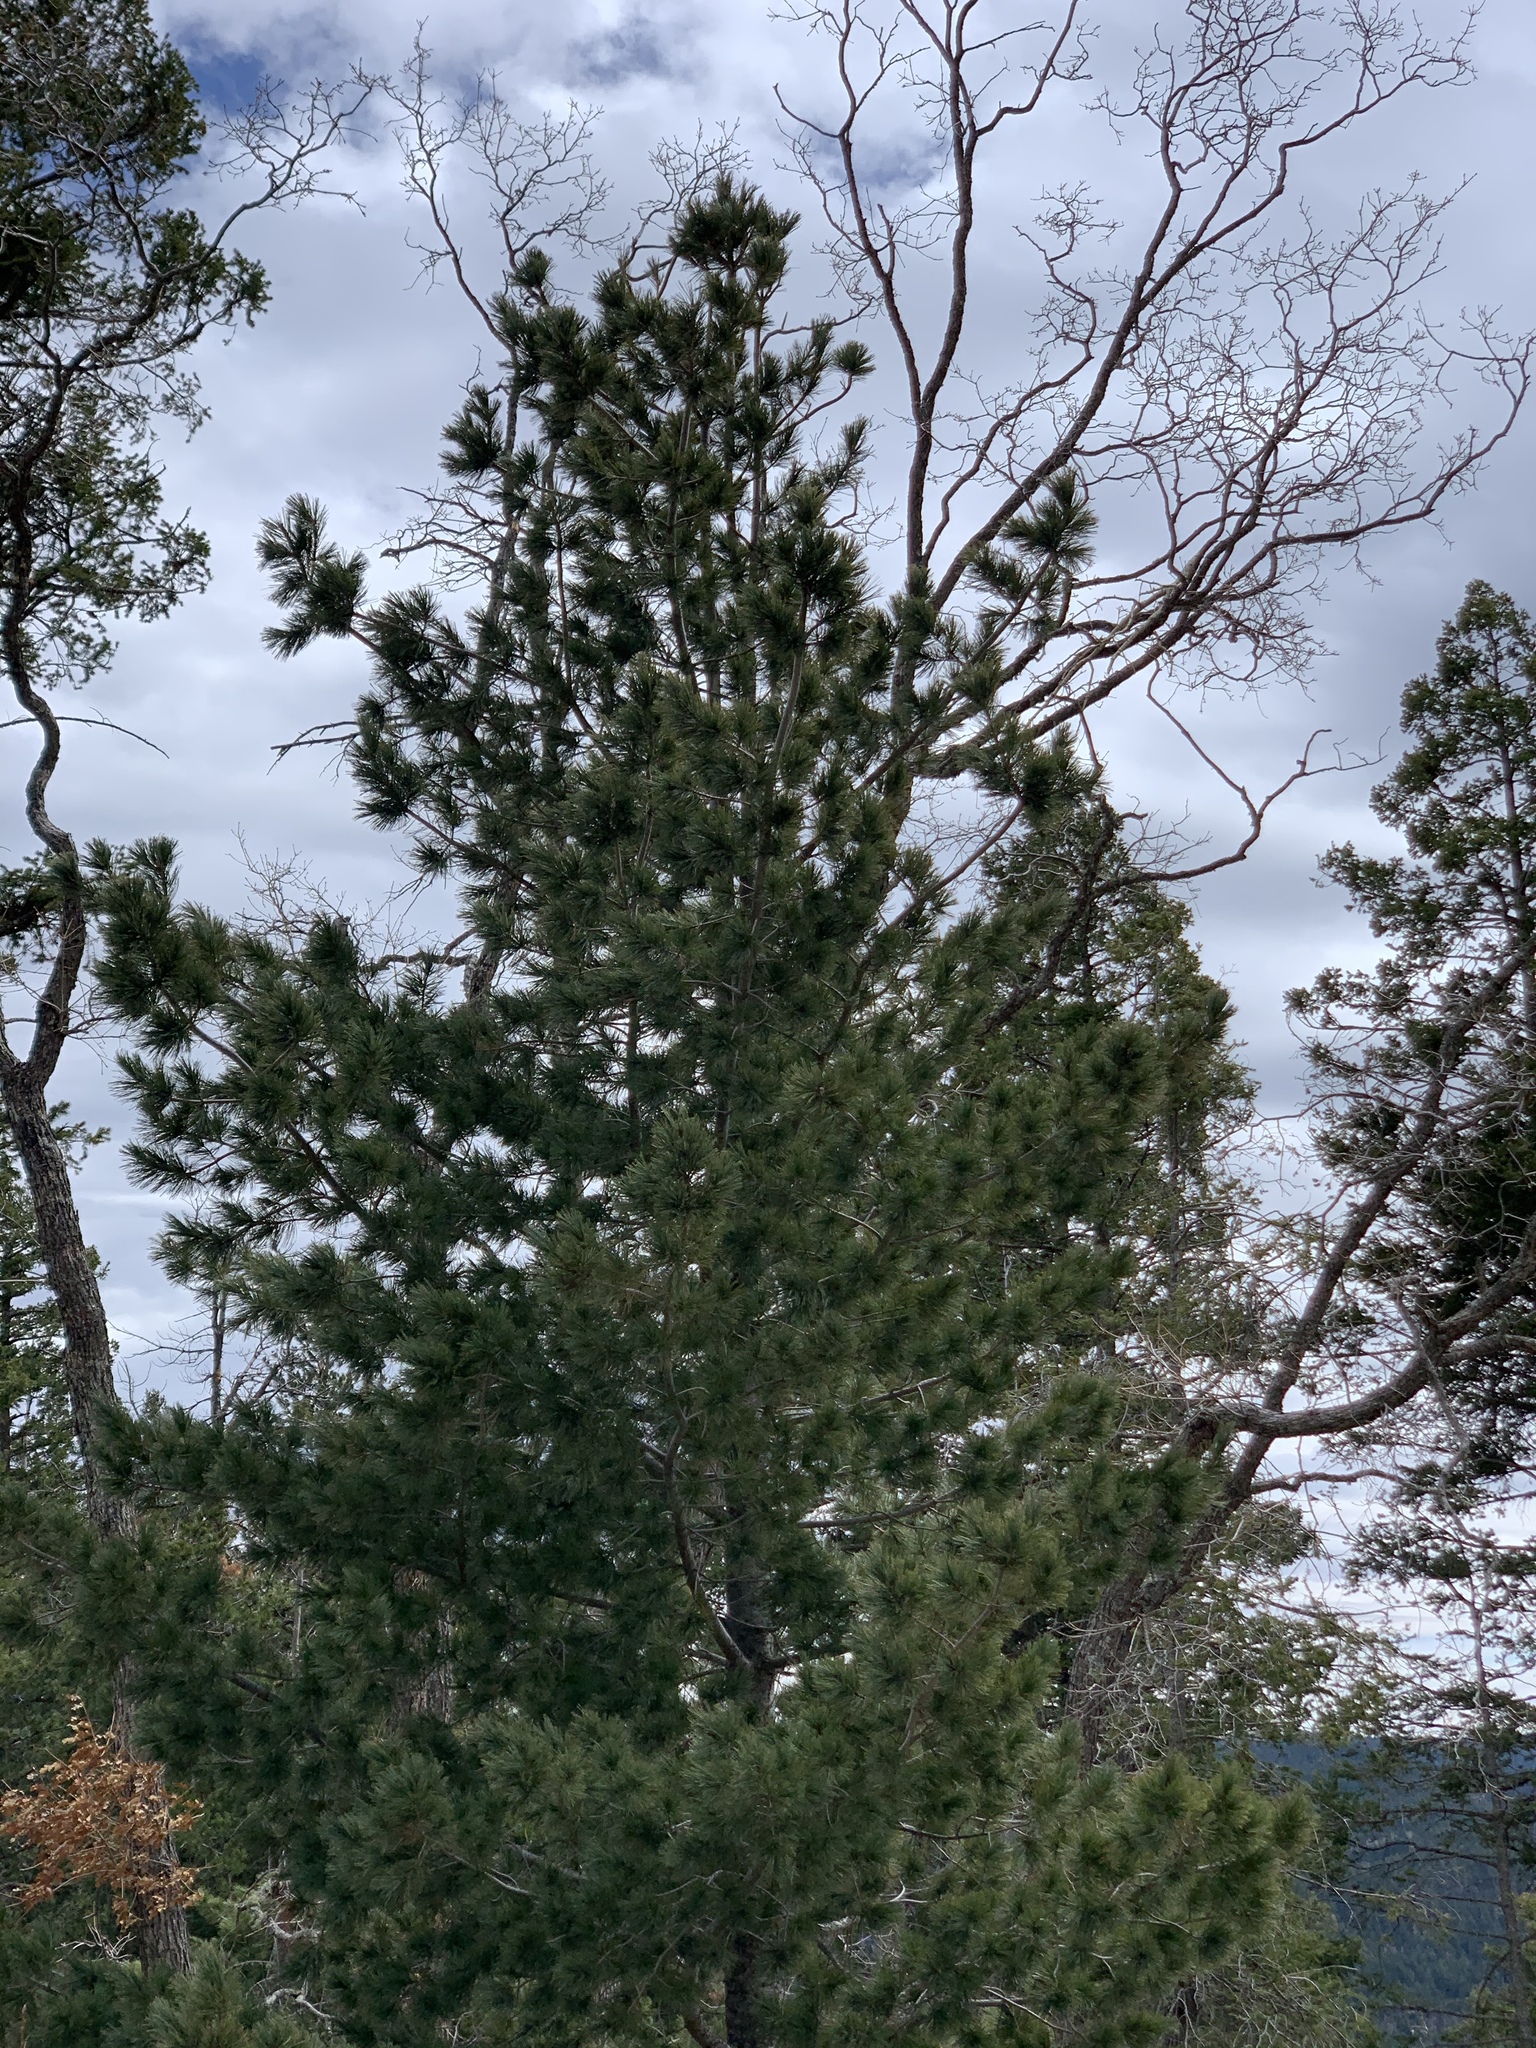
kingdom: Plantae
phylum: Tracheophyta
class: Pinopsida
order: Pinales
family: Pinaceae
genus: Pinus
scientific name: Pinus strobiformis
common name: Southwestern white pine
